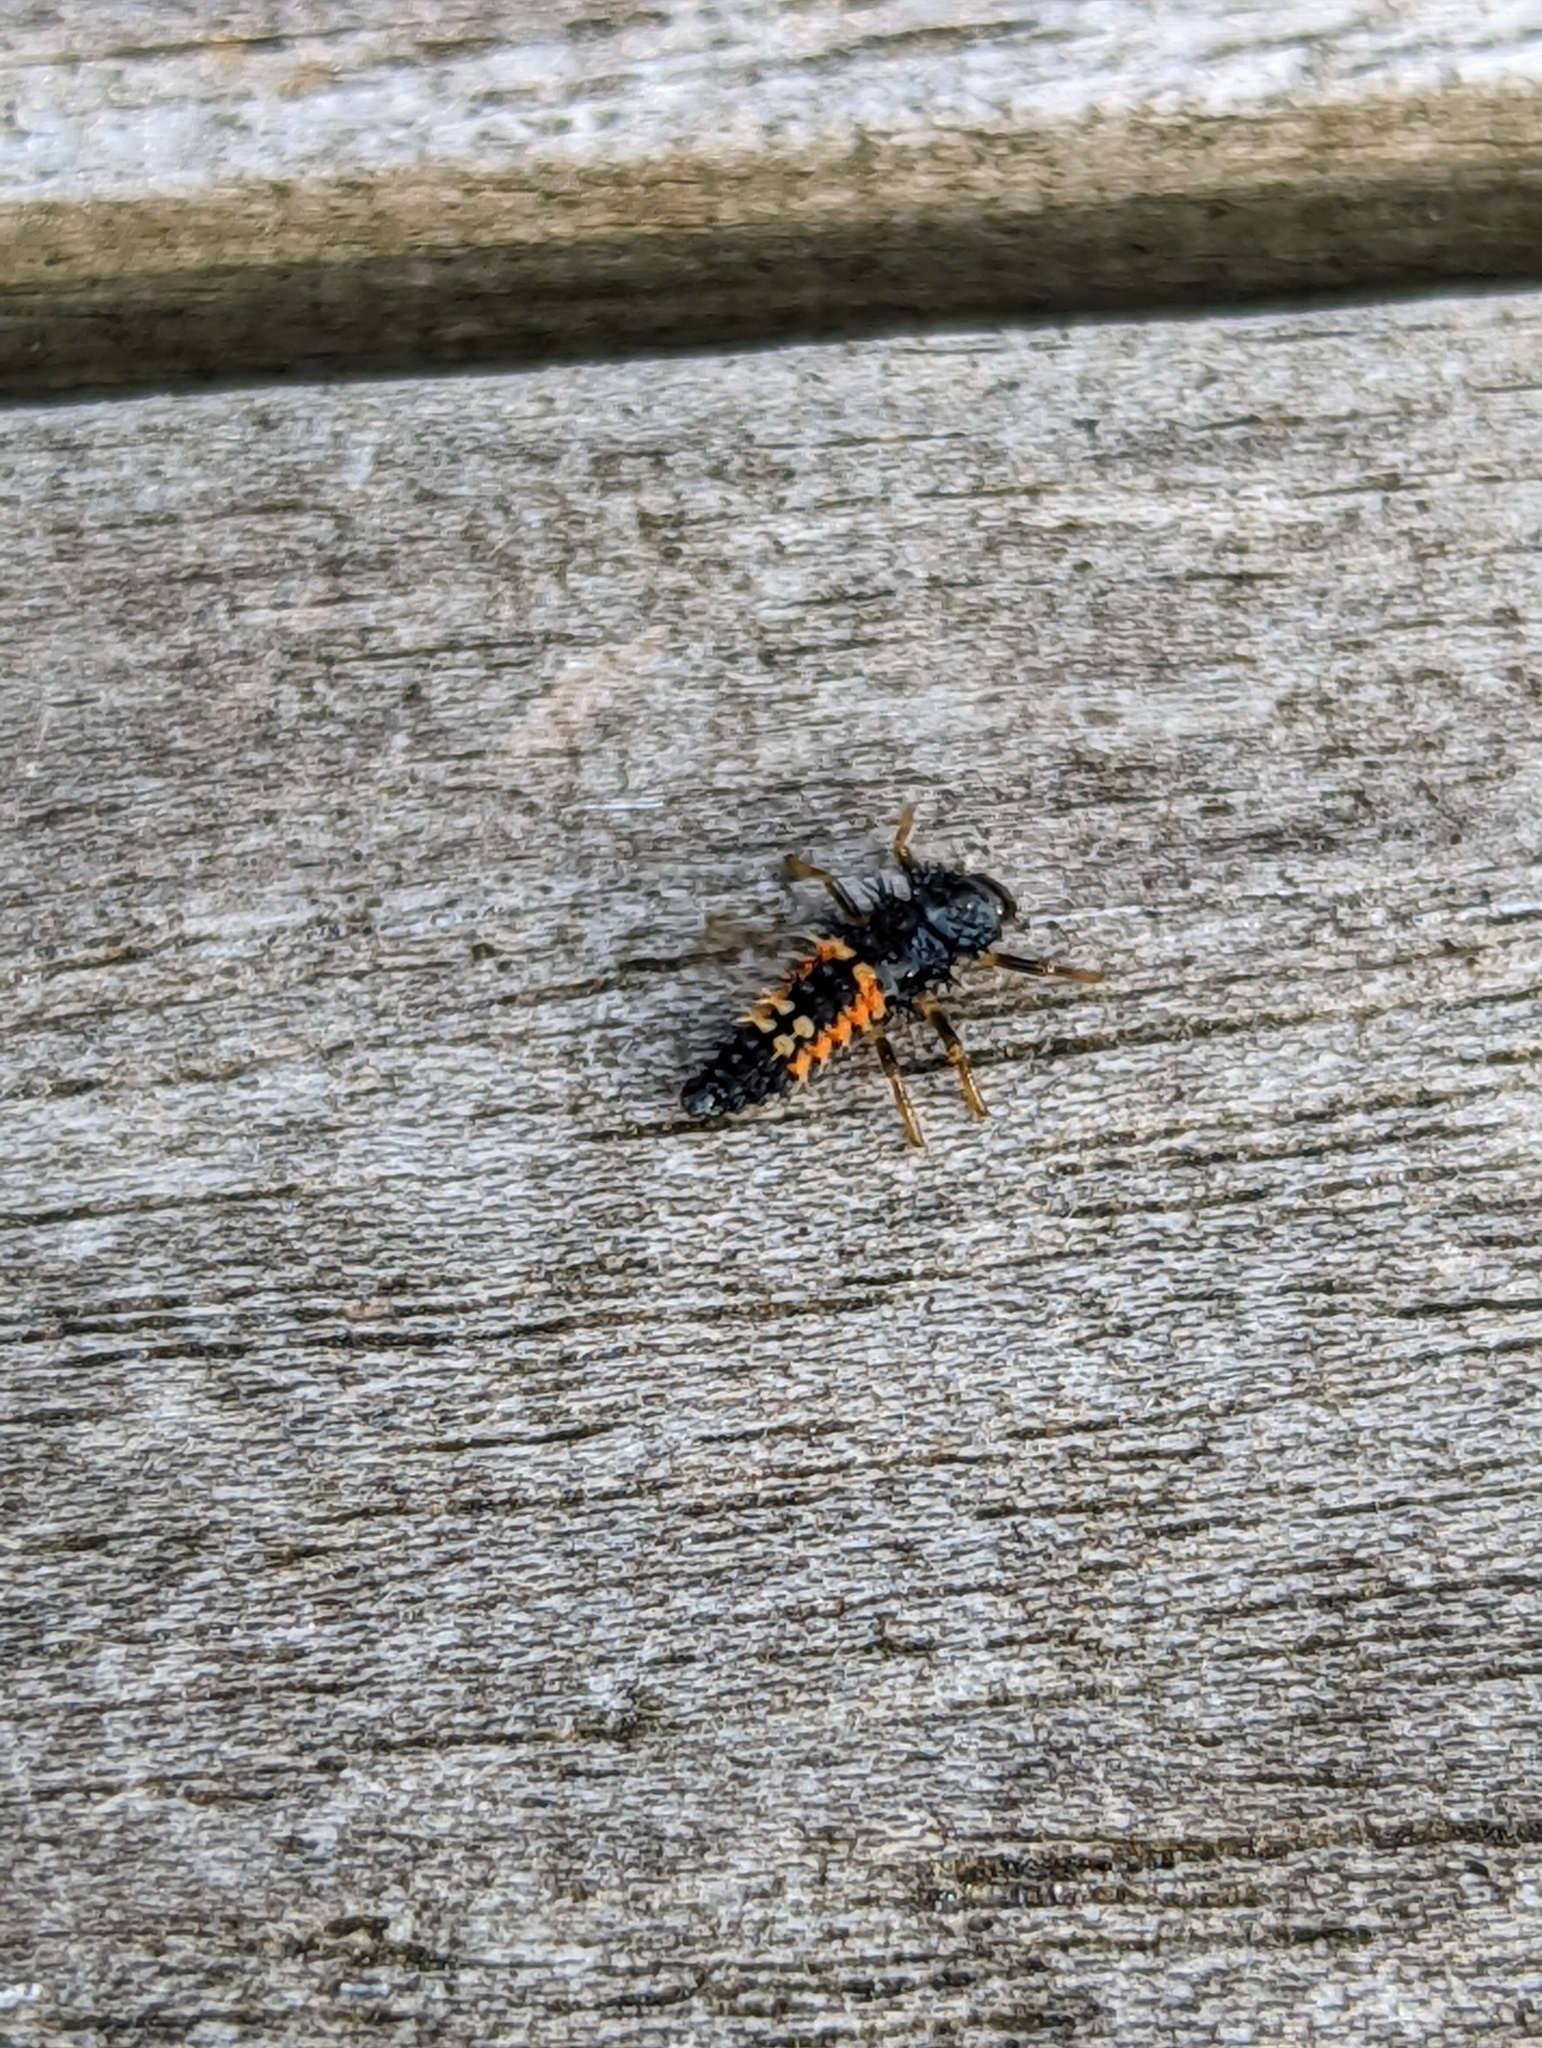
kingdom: Animalia
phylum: Arthropoda
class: Insecta
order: Coleoptera
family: Coccinellidae
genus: Harmonia
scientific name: Harmonia axyridis
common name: Harlequin ladybird
